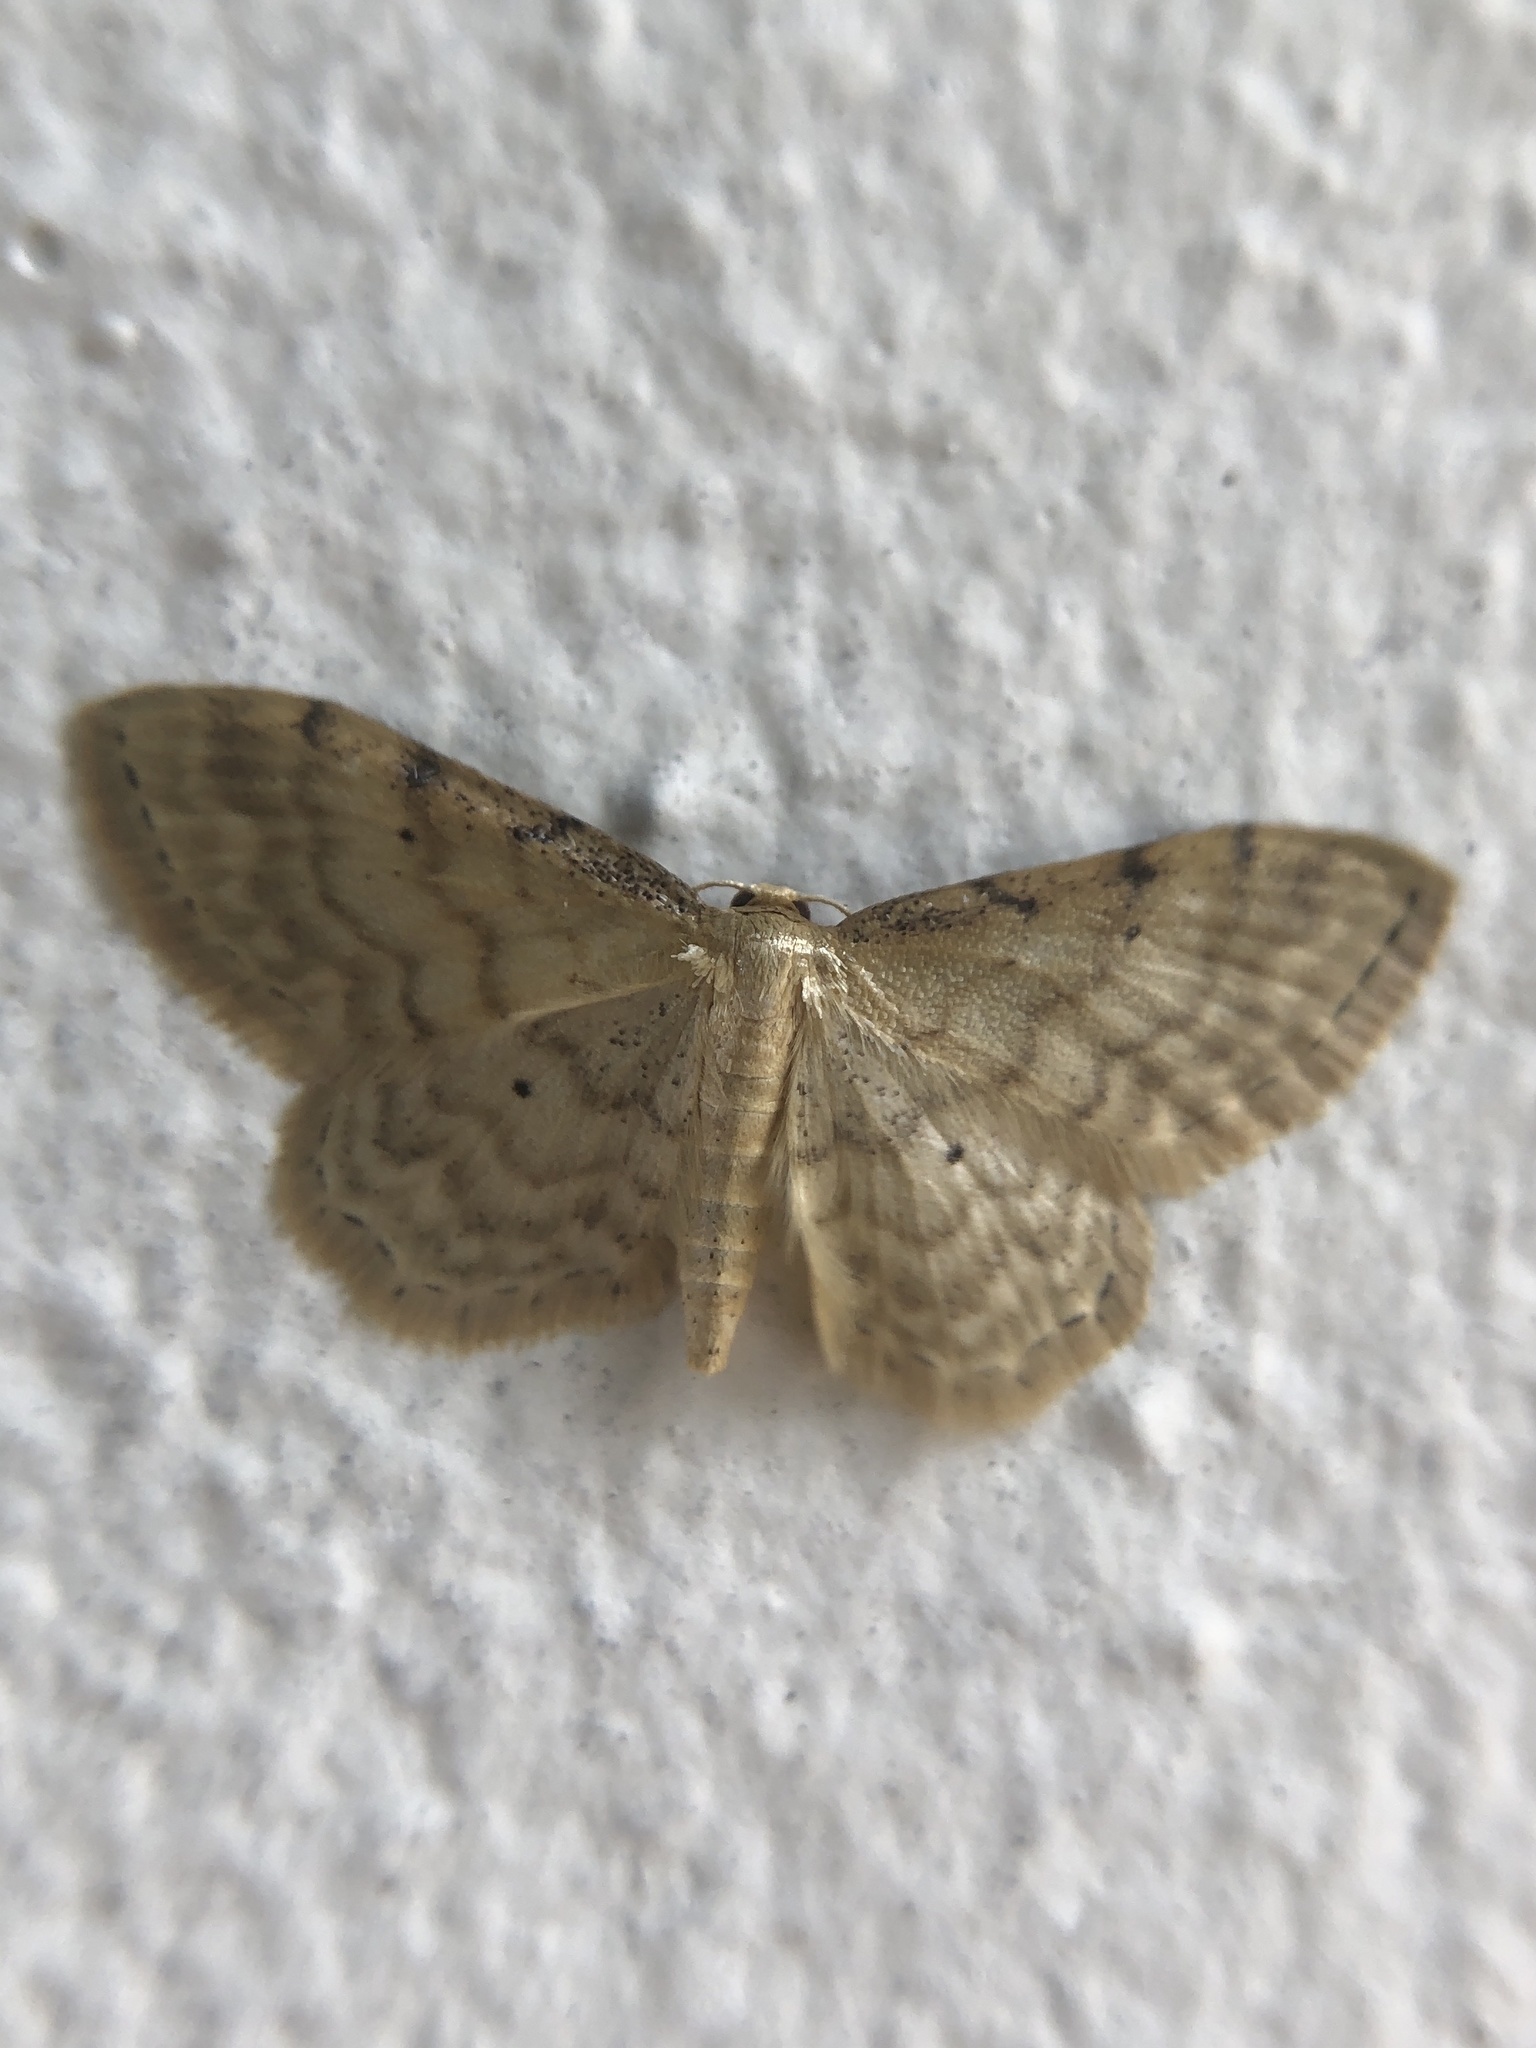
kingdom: Animalia
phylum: Arthropoda
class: Insecta
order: Lepidoptera
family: Geometridae
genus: Idaea
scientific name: Idaea fuscovenosa
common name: Dwarf cream wave
